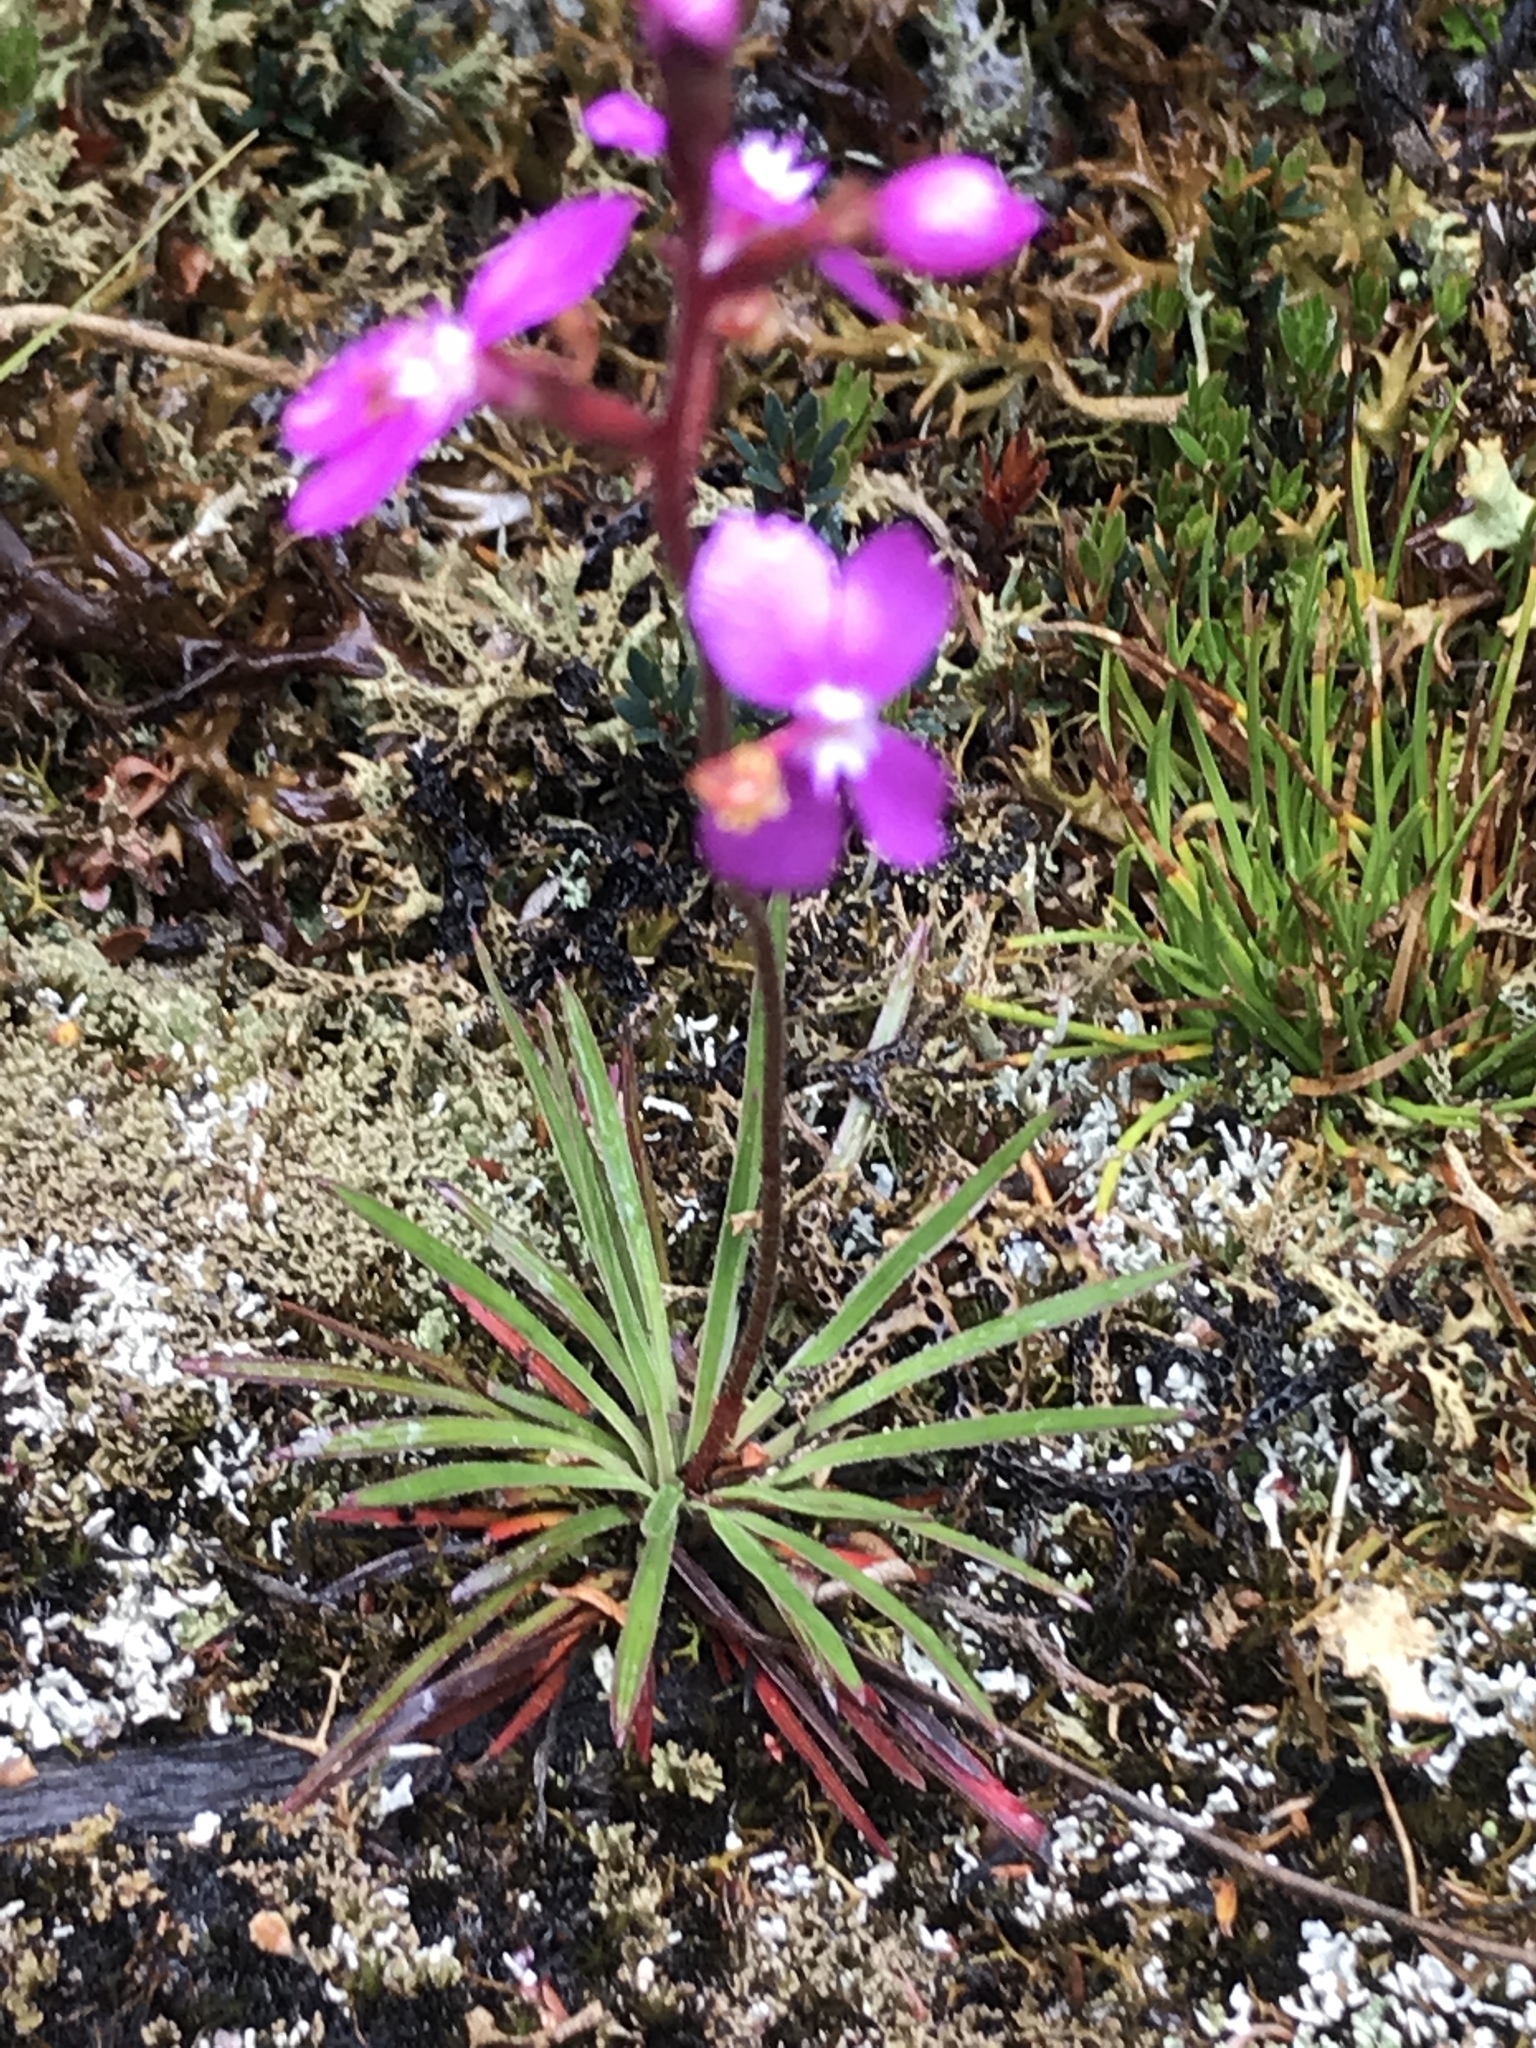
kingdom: Plantae
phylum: Tracheophyta
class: Magnoliopsida
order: Asterales
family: Stylidiaceae
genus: Stylidium
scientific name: Stylidium graminifolium
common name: Grass triggerplant
